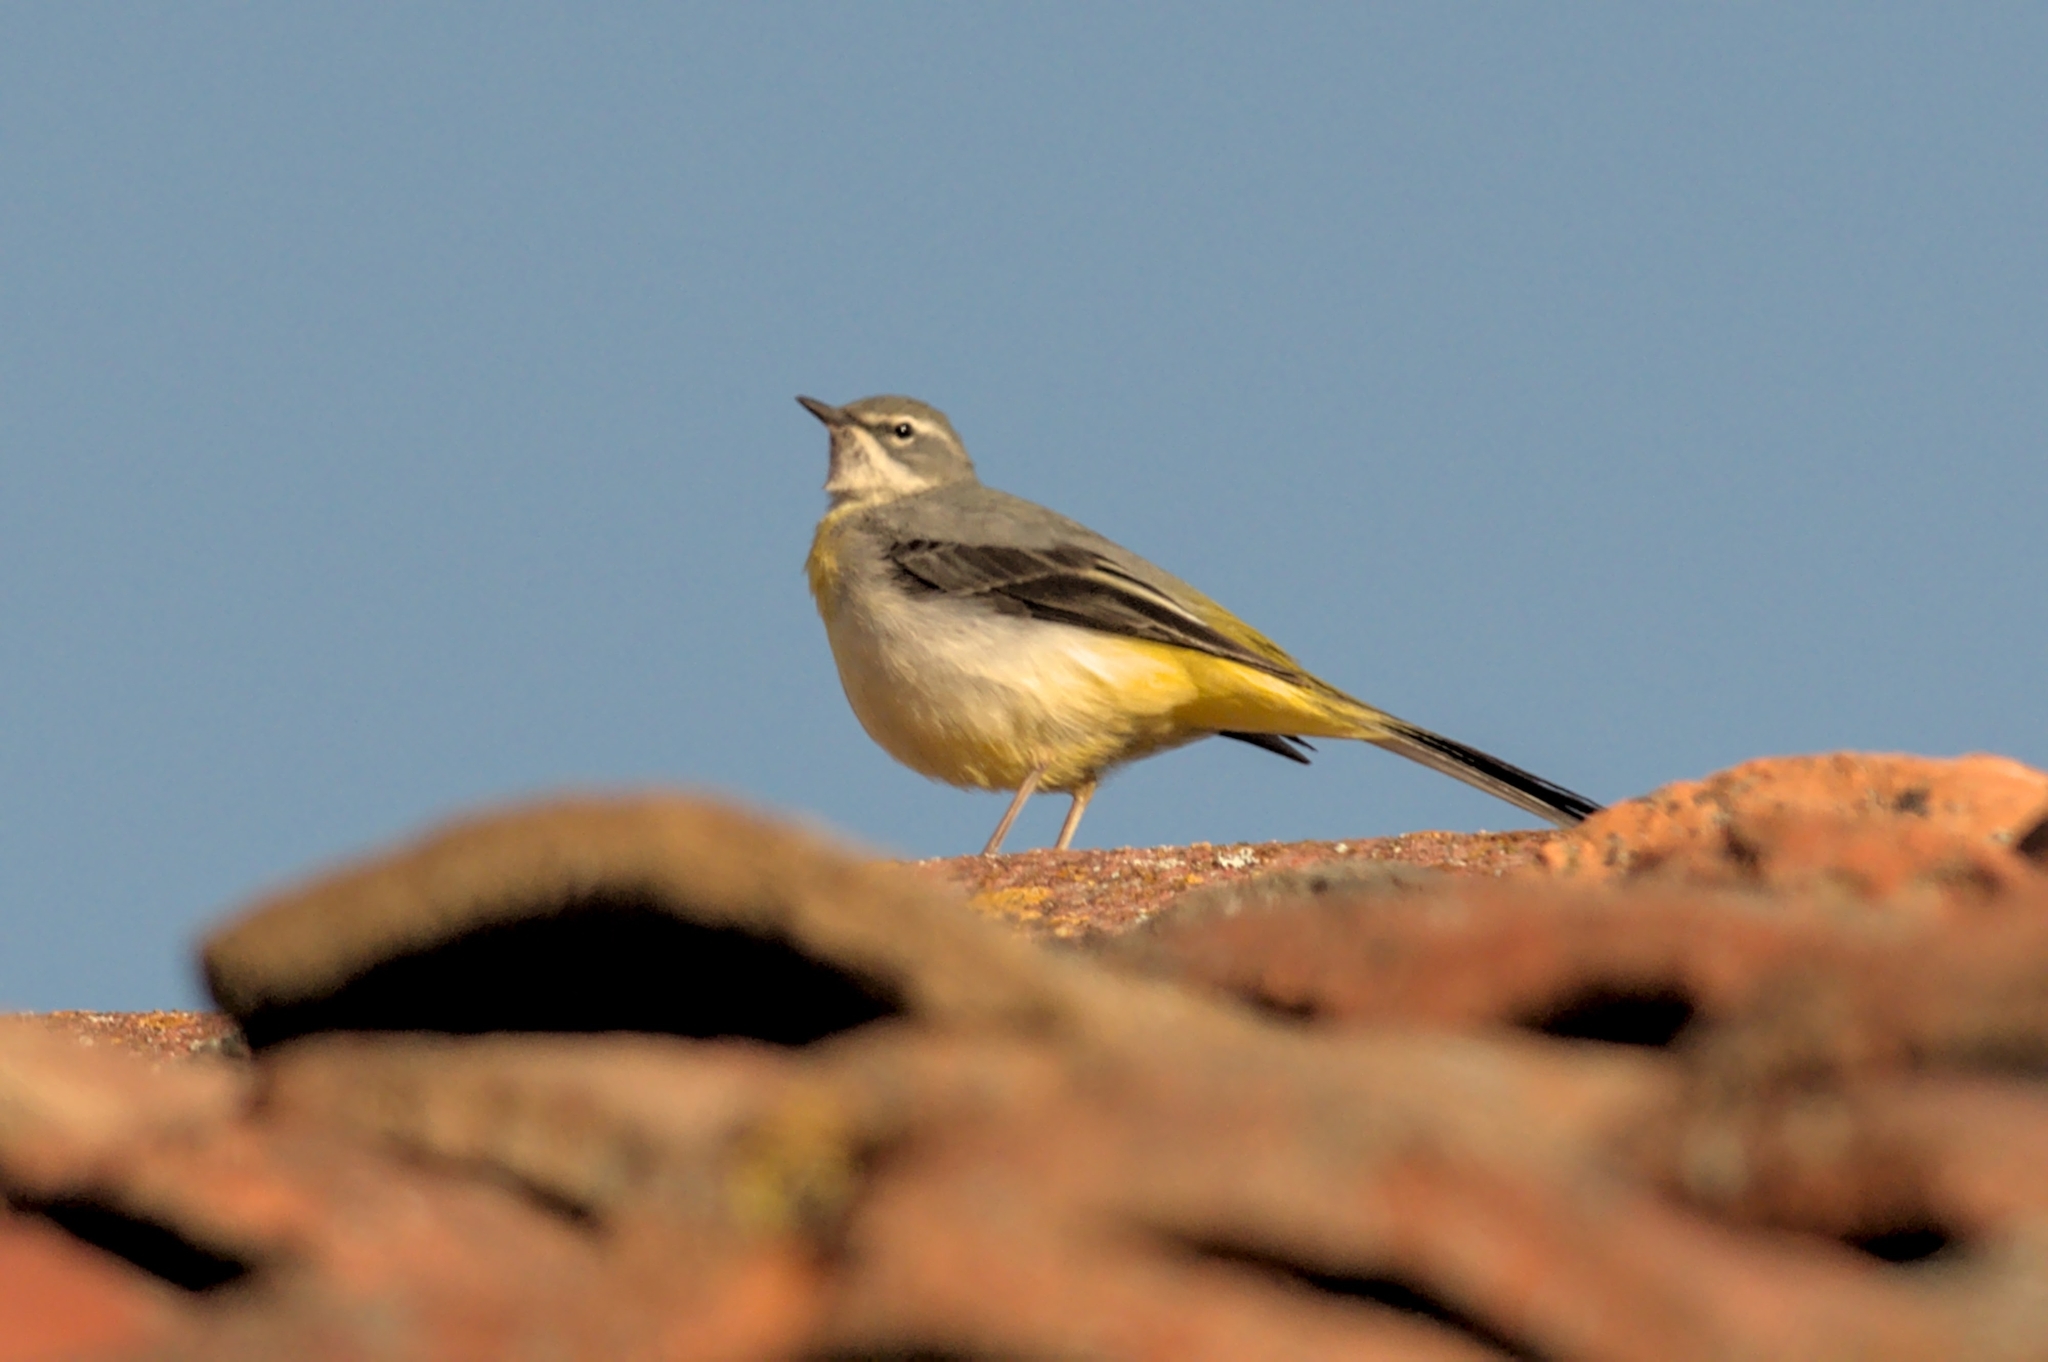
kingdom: Animalia
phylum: Chordata
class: Aves
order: Passeriformes
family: Motacillidae
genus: Motacilla
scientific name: Motacilla cinerea
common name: Grey wagtail
